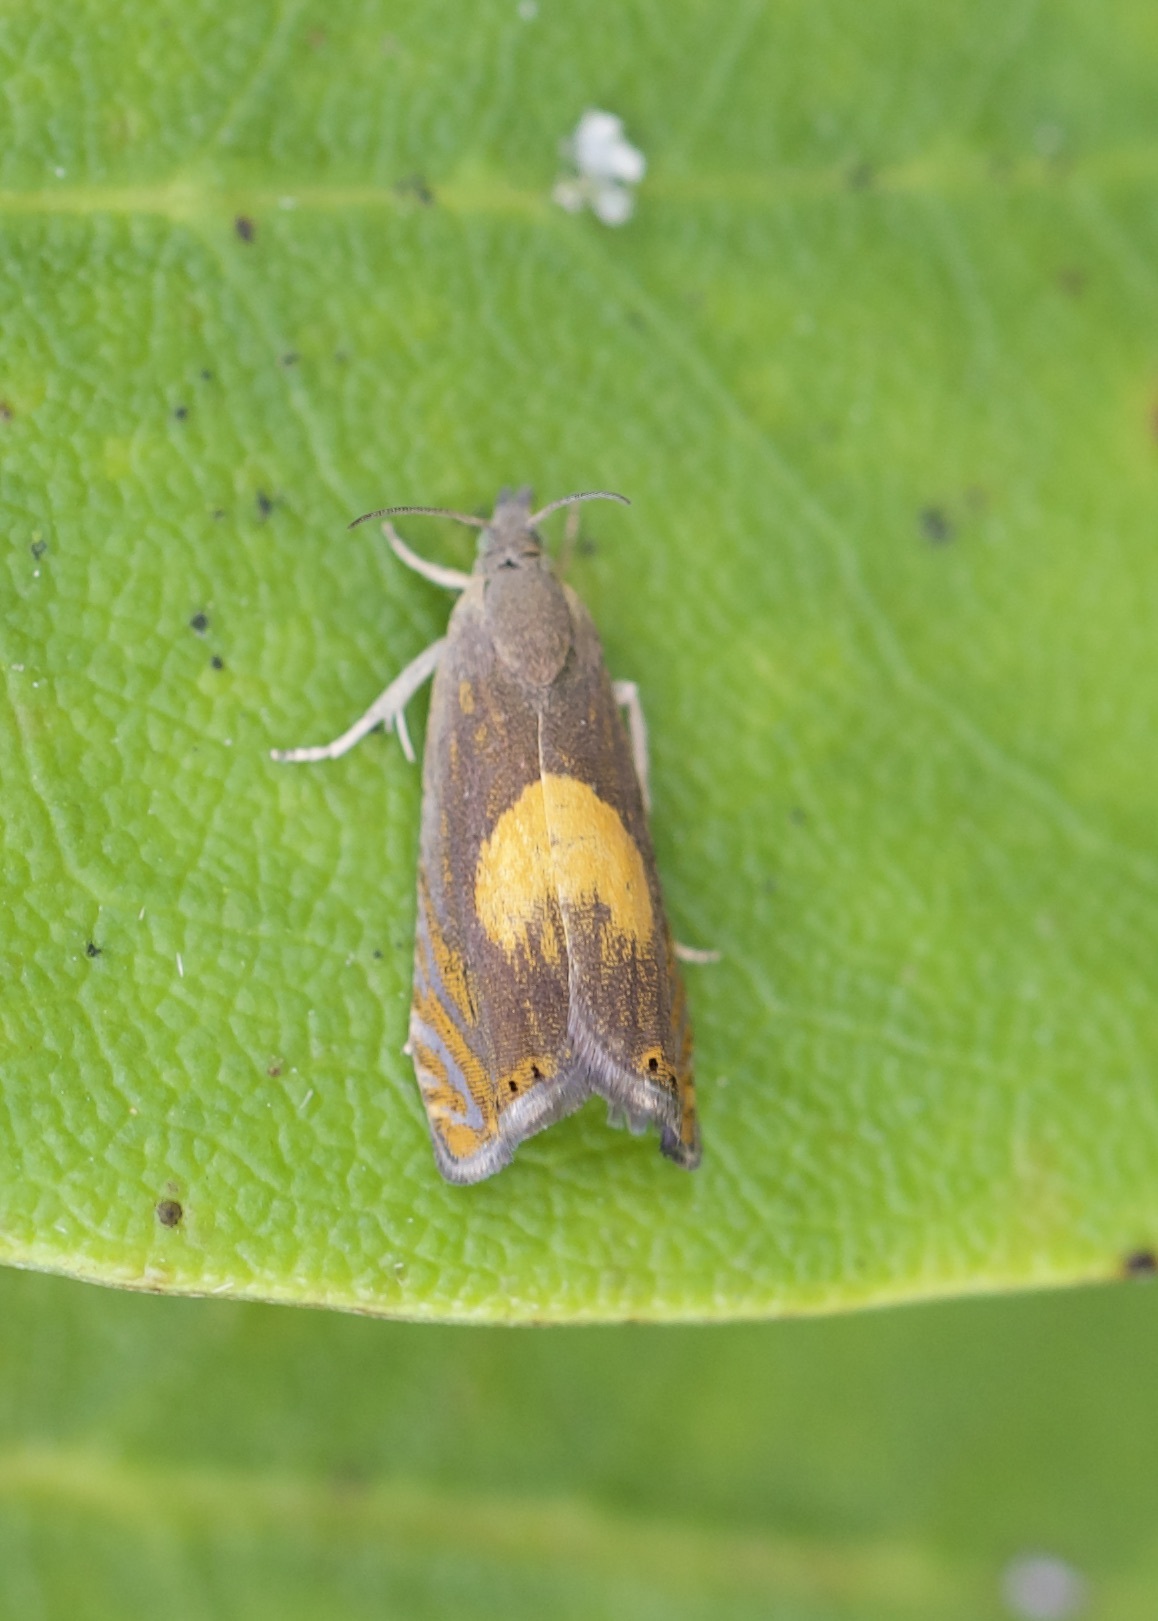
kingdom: Animalia
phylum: Arthropoda
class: Insecta
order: Lepidoptera
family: Tortricidae
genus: Dichrorampha
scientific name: Dichrorampha alpinana
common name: Broad-blotch drill
